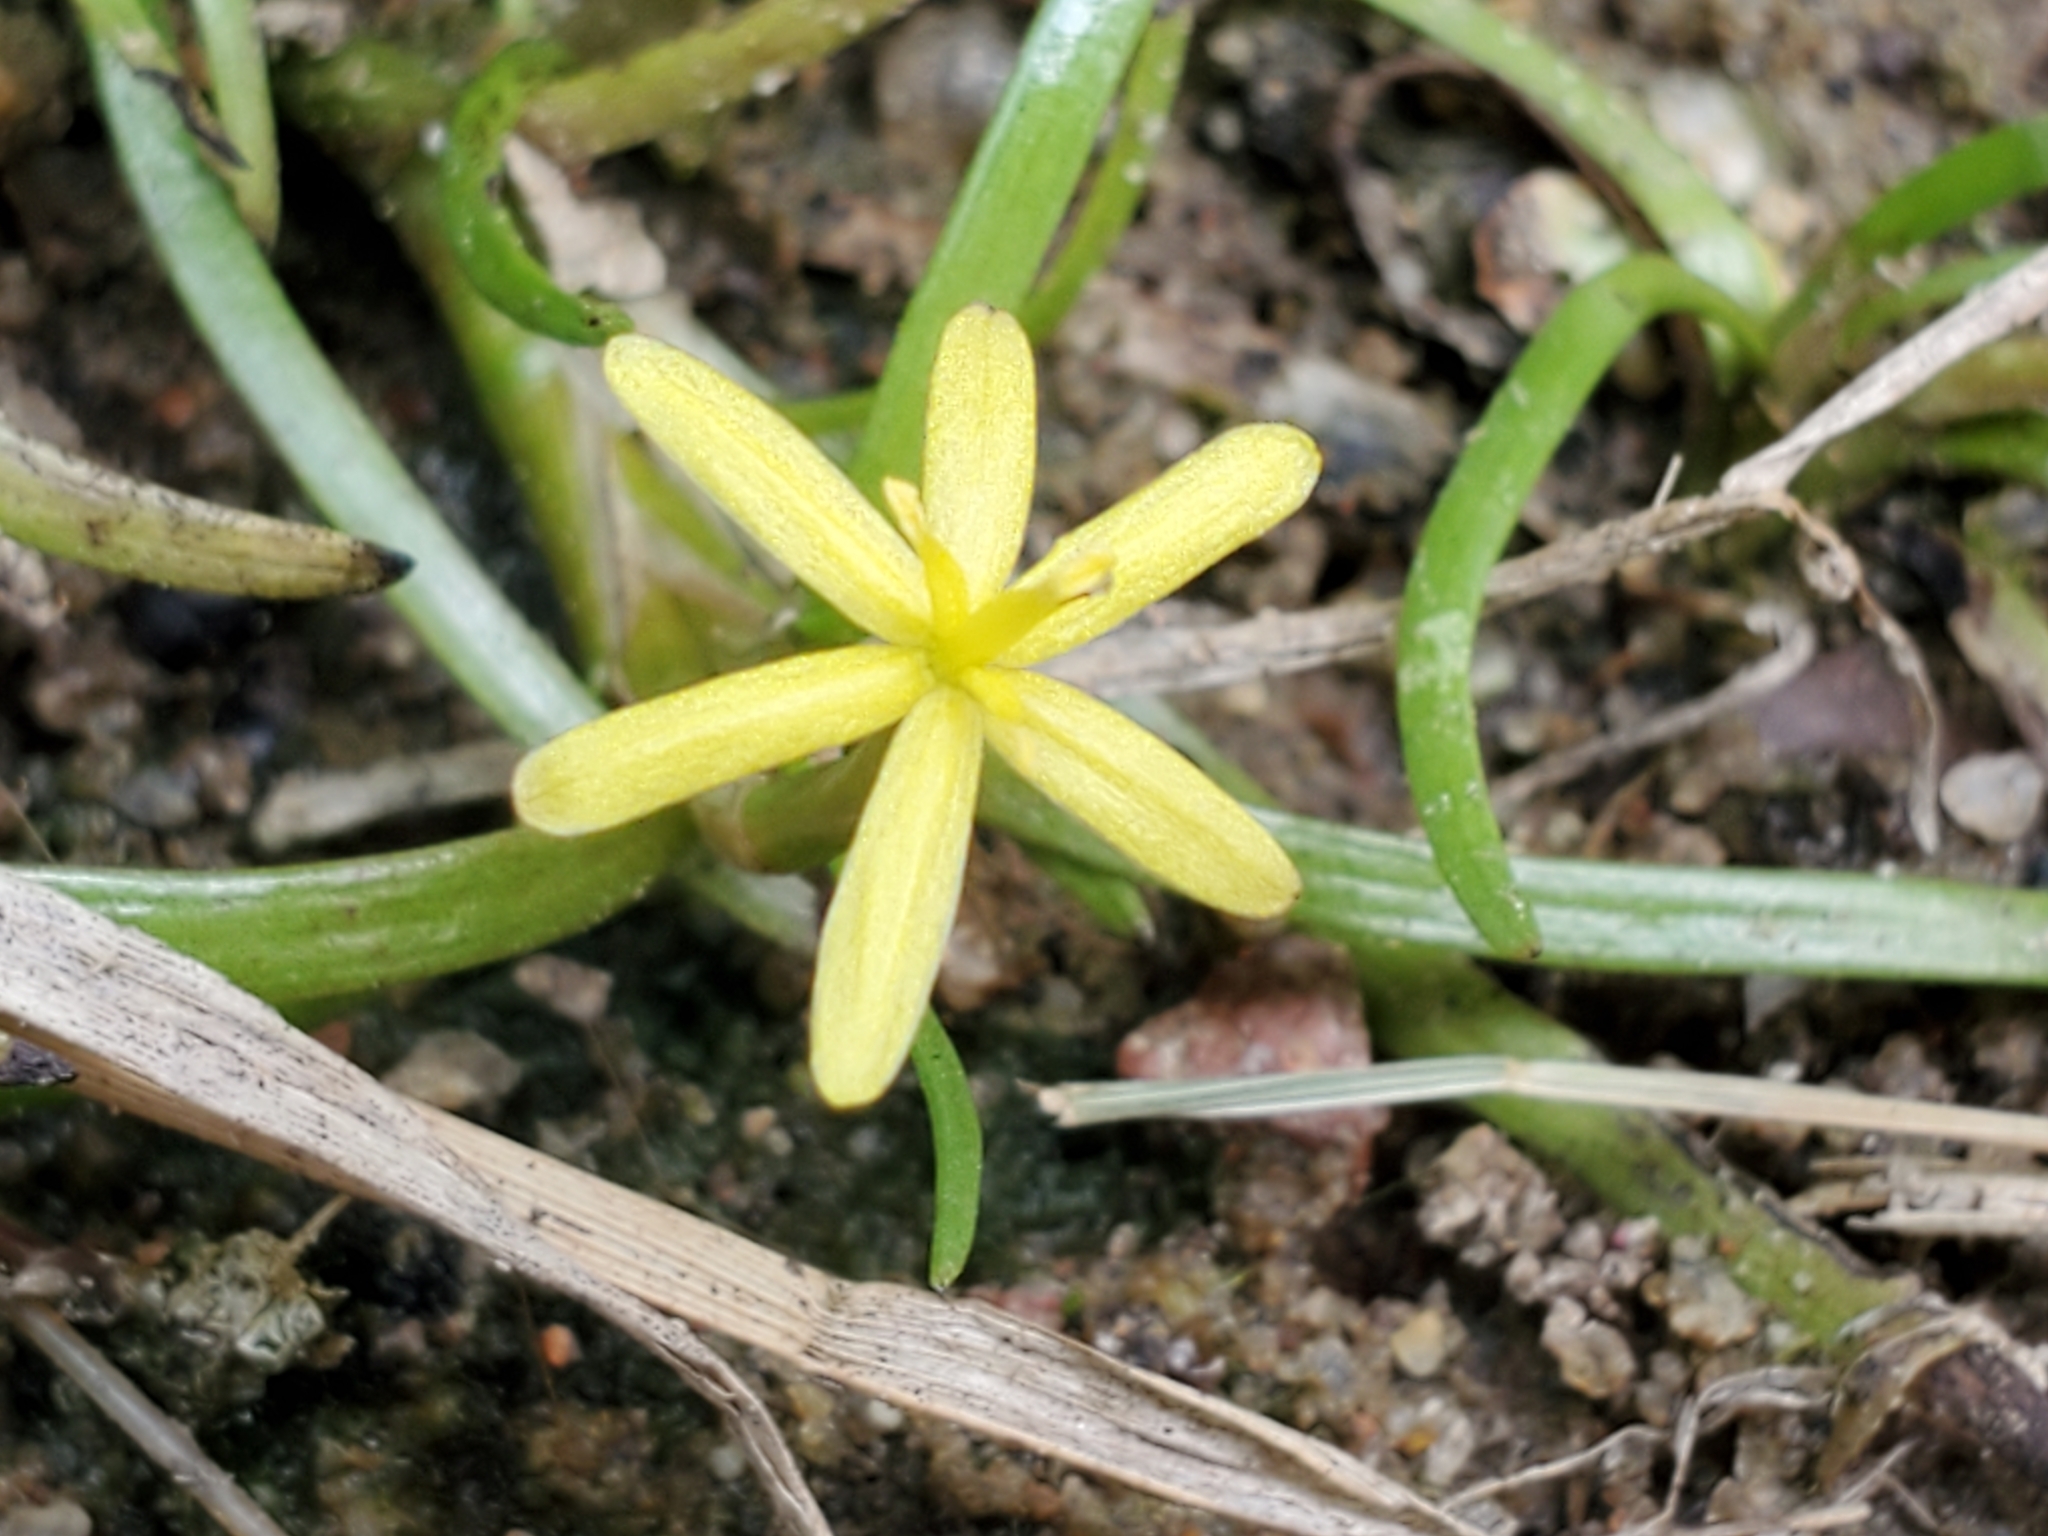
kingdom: Plantae
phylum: Tracheophyta
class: Liliopsida
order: Commelinales
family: Pontederiaceae
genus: Heteranthera
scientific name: Heteranthera dubia
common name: Grass-leaved mud plantain
